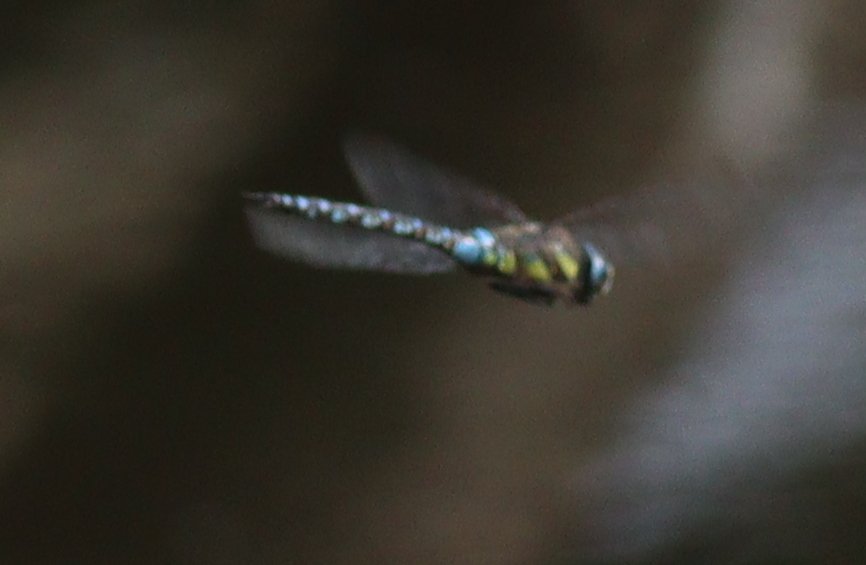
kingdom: Animalia
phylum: Arthropoda
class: Insecta
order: Odonata
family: Aeshnidae
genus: Aeshna
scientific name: Aeshna mixta
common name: Migrant hawker
